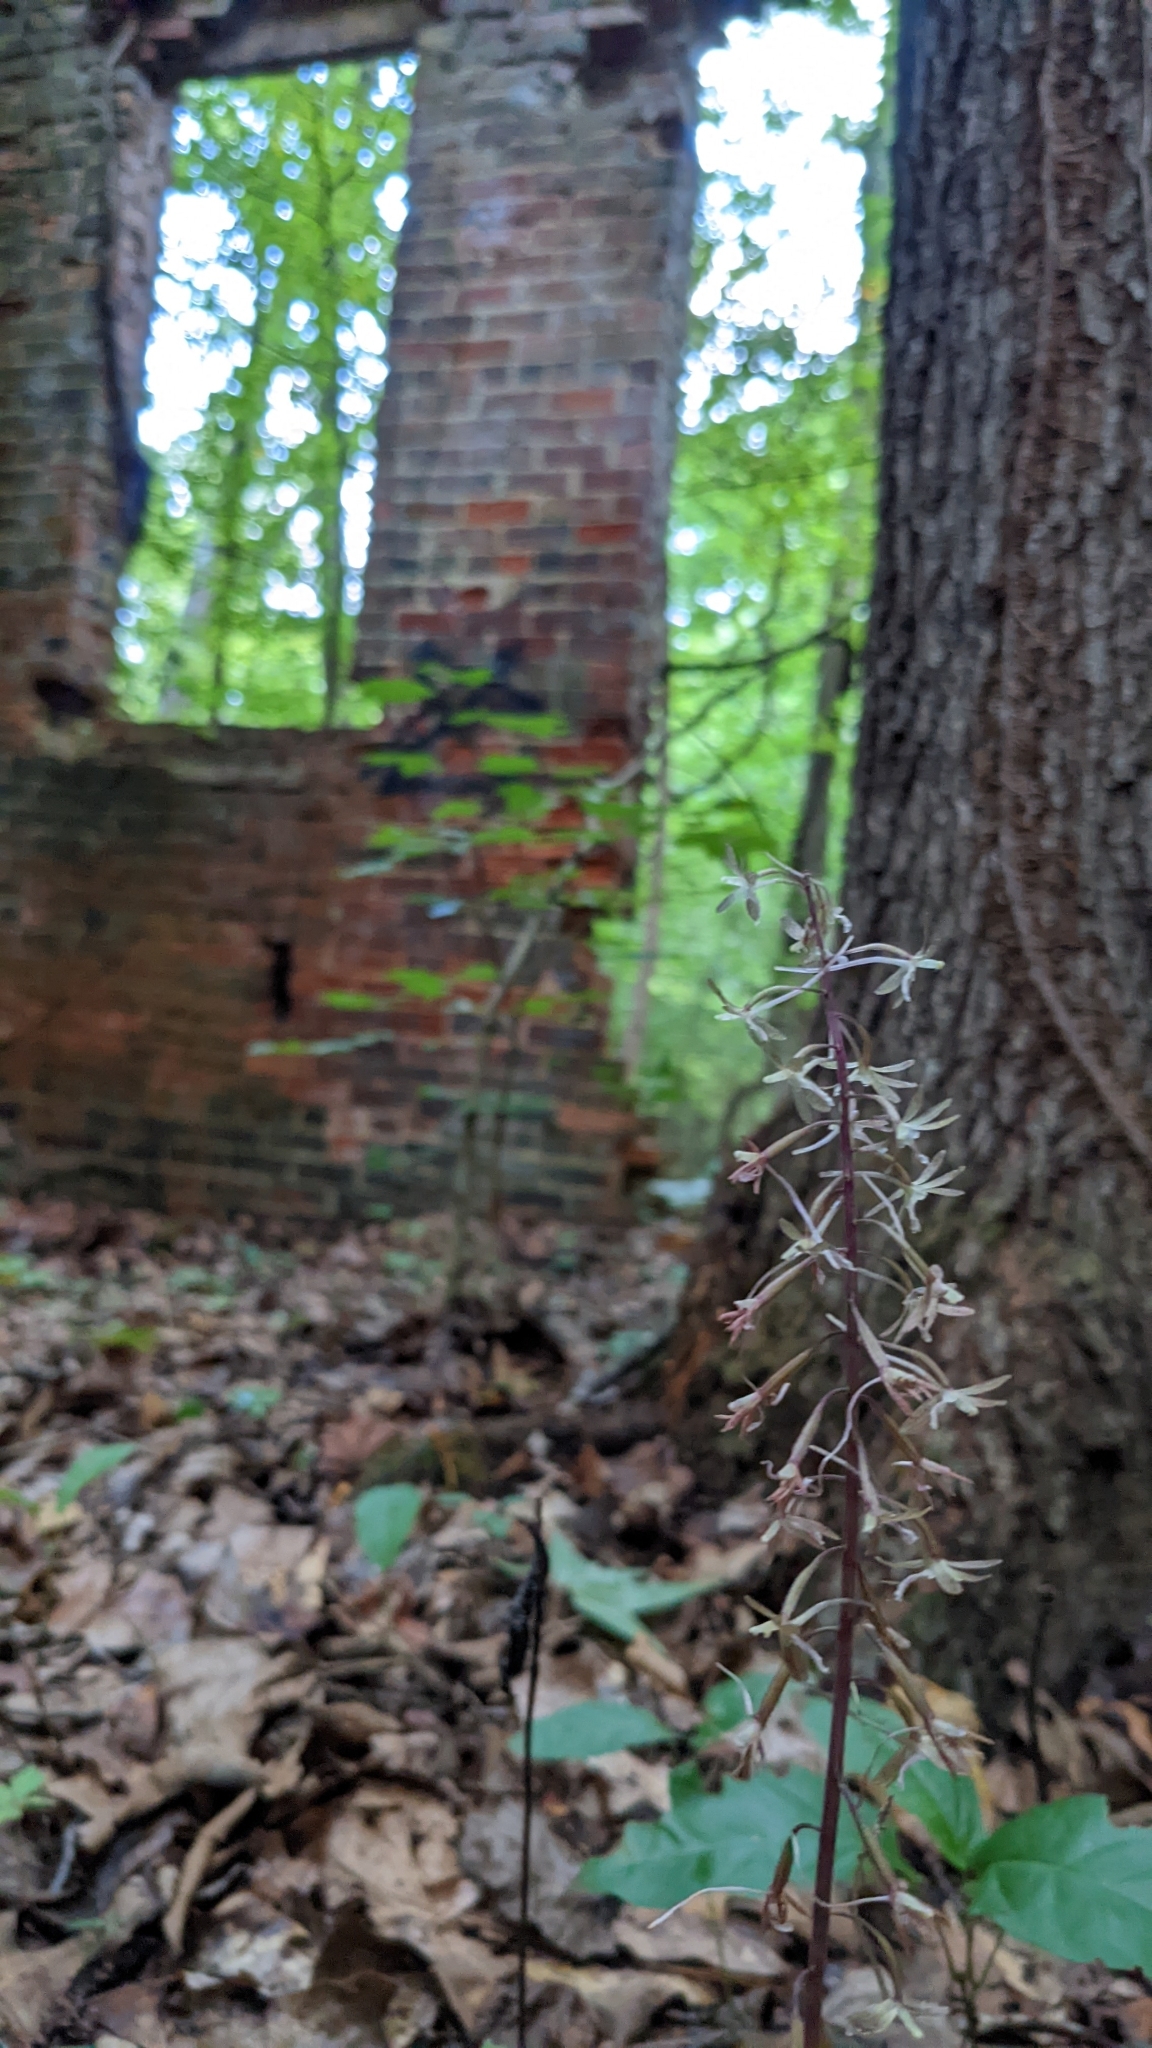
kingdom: Plantae
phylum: Tracheophyta
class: Liliopsida
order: Asparagales
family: Orchidaceae
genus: Tipularia
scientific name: Tipularia discolor
